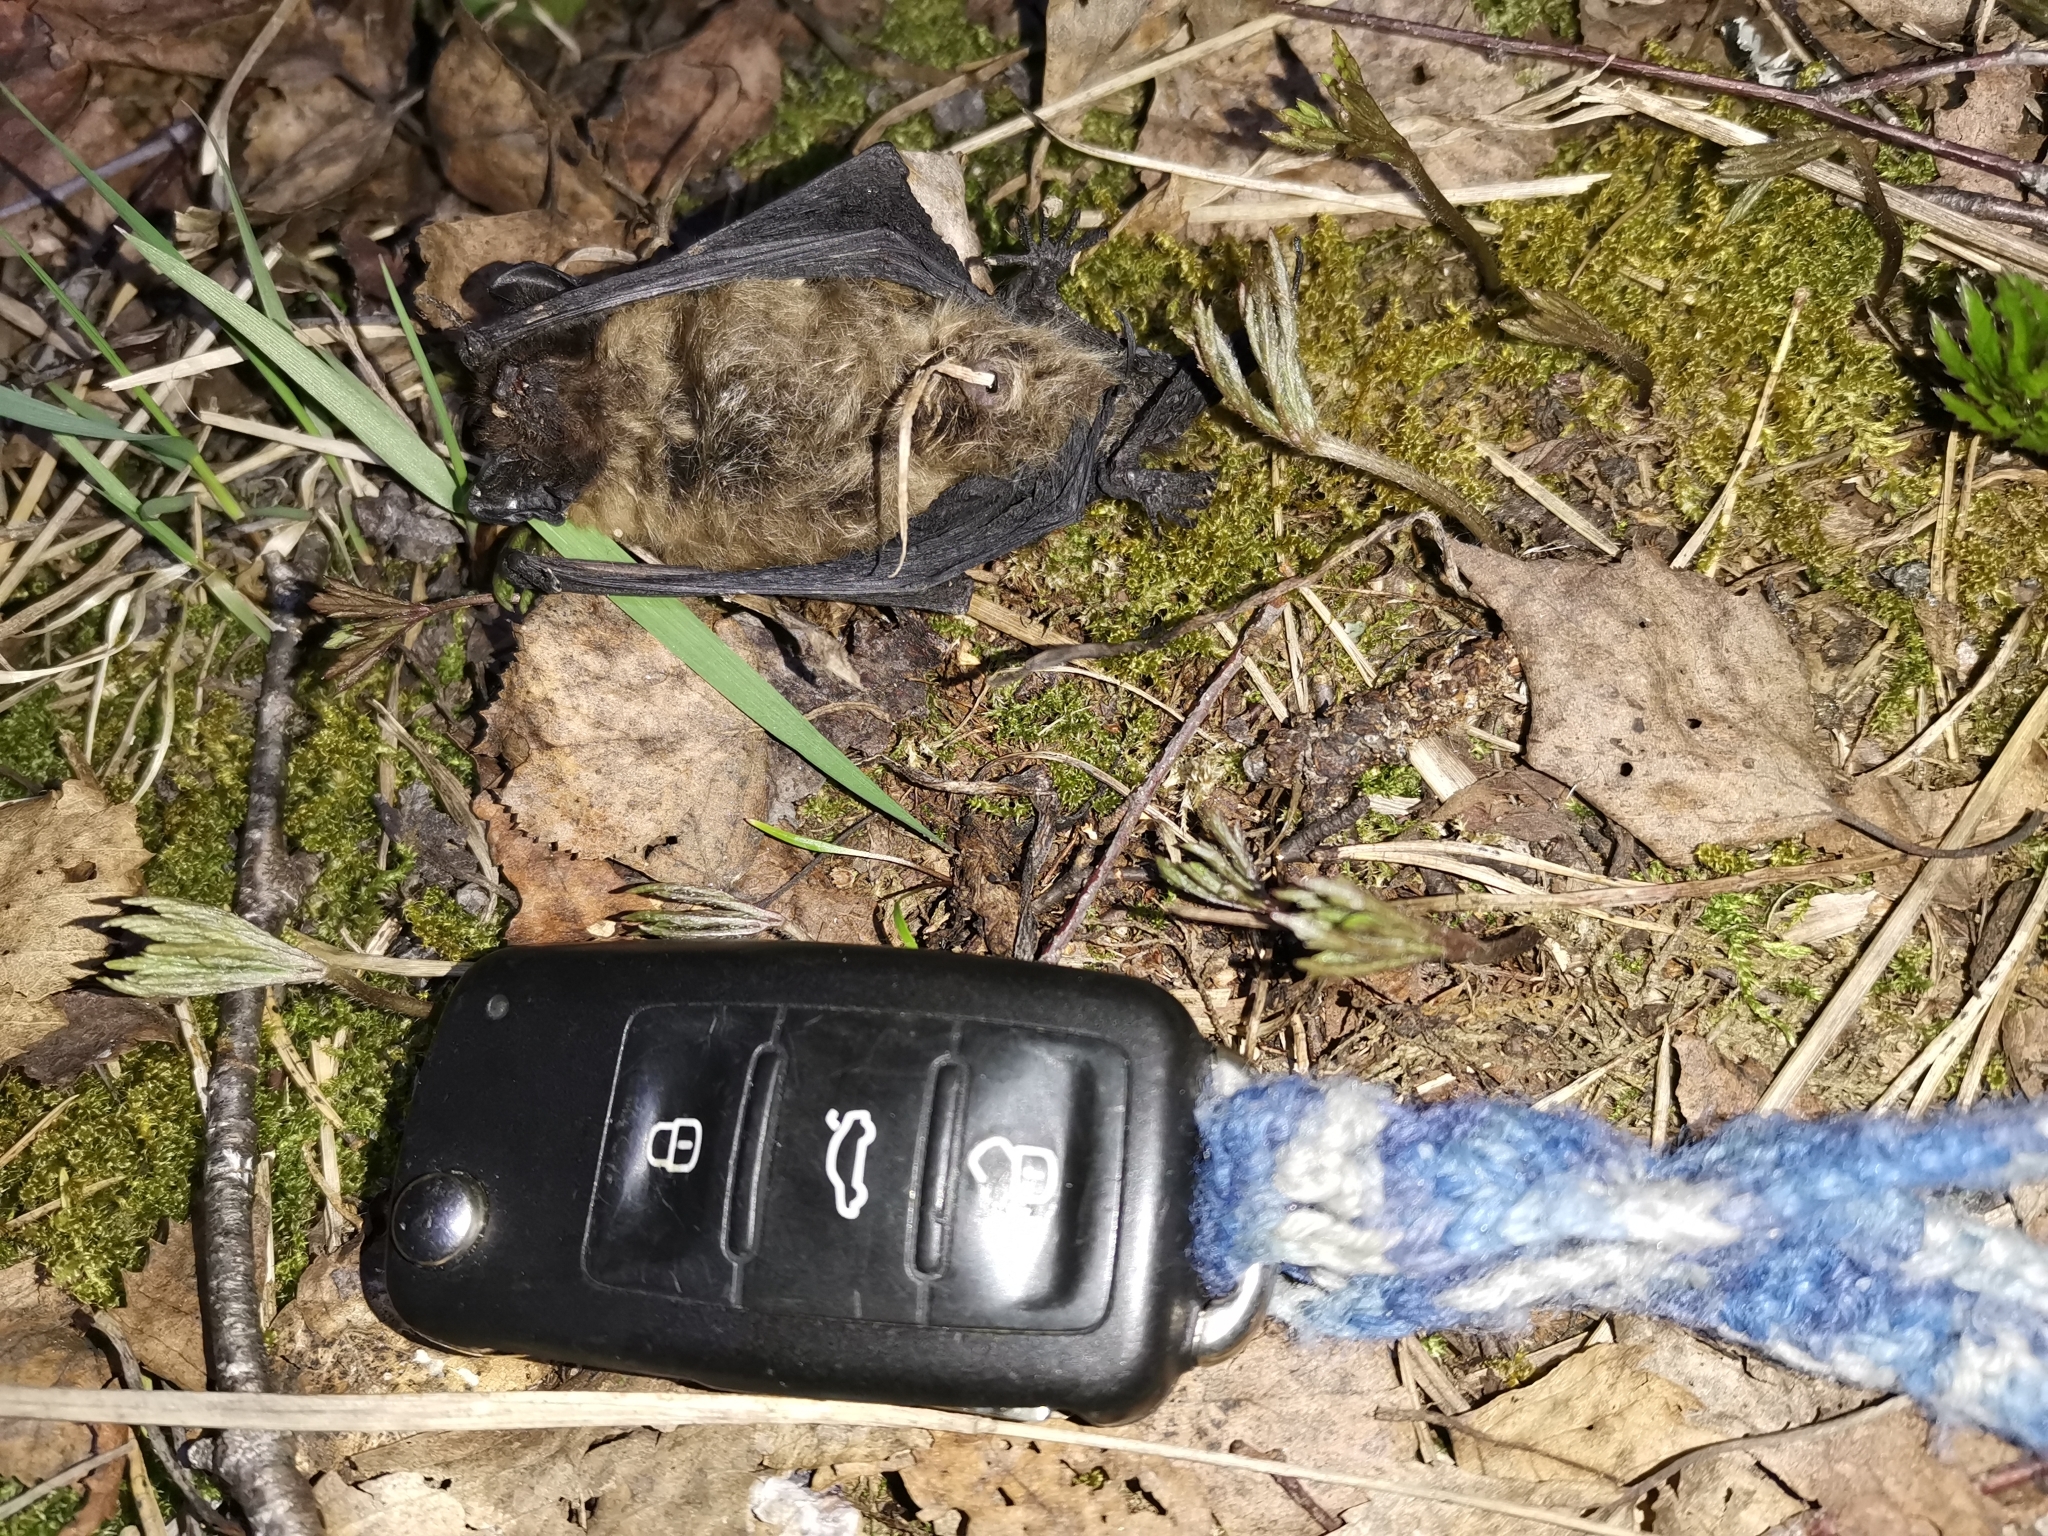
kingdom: Animalia
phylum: Chordata
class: Mammalia
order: Chiroptera
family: Vespertilionidae
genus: Eptesicus
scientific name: Eptesicus nilssonii
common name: Northern bat
